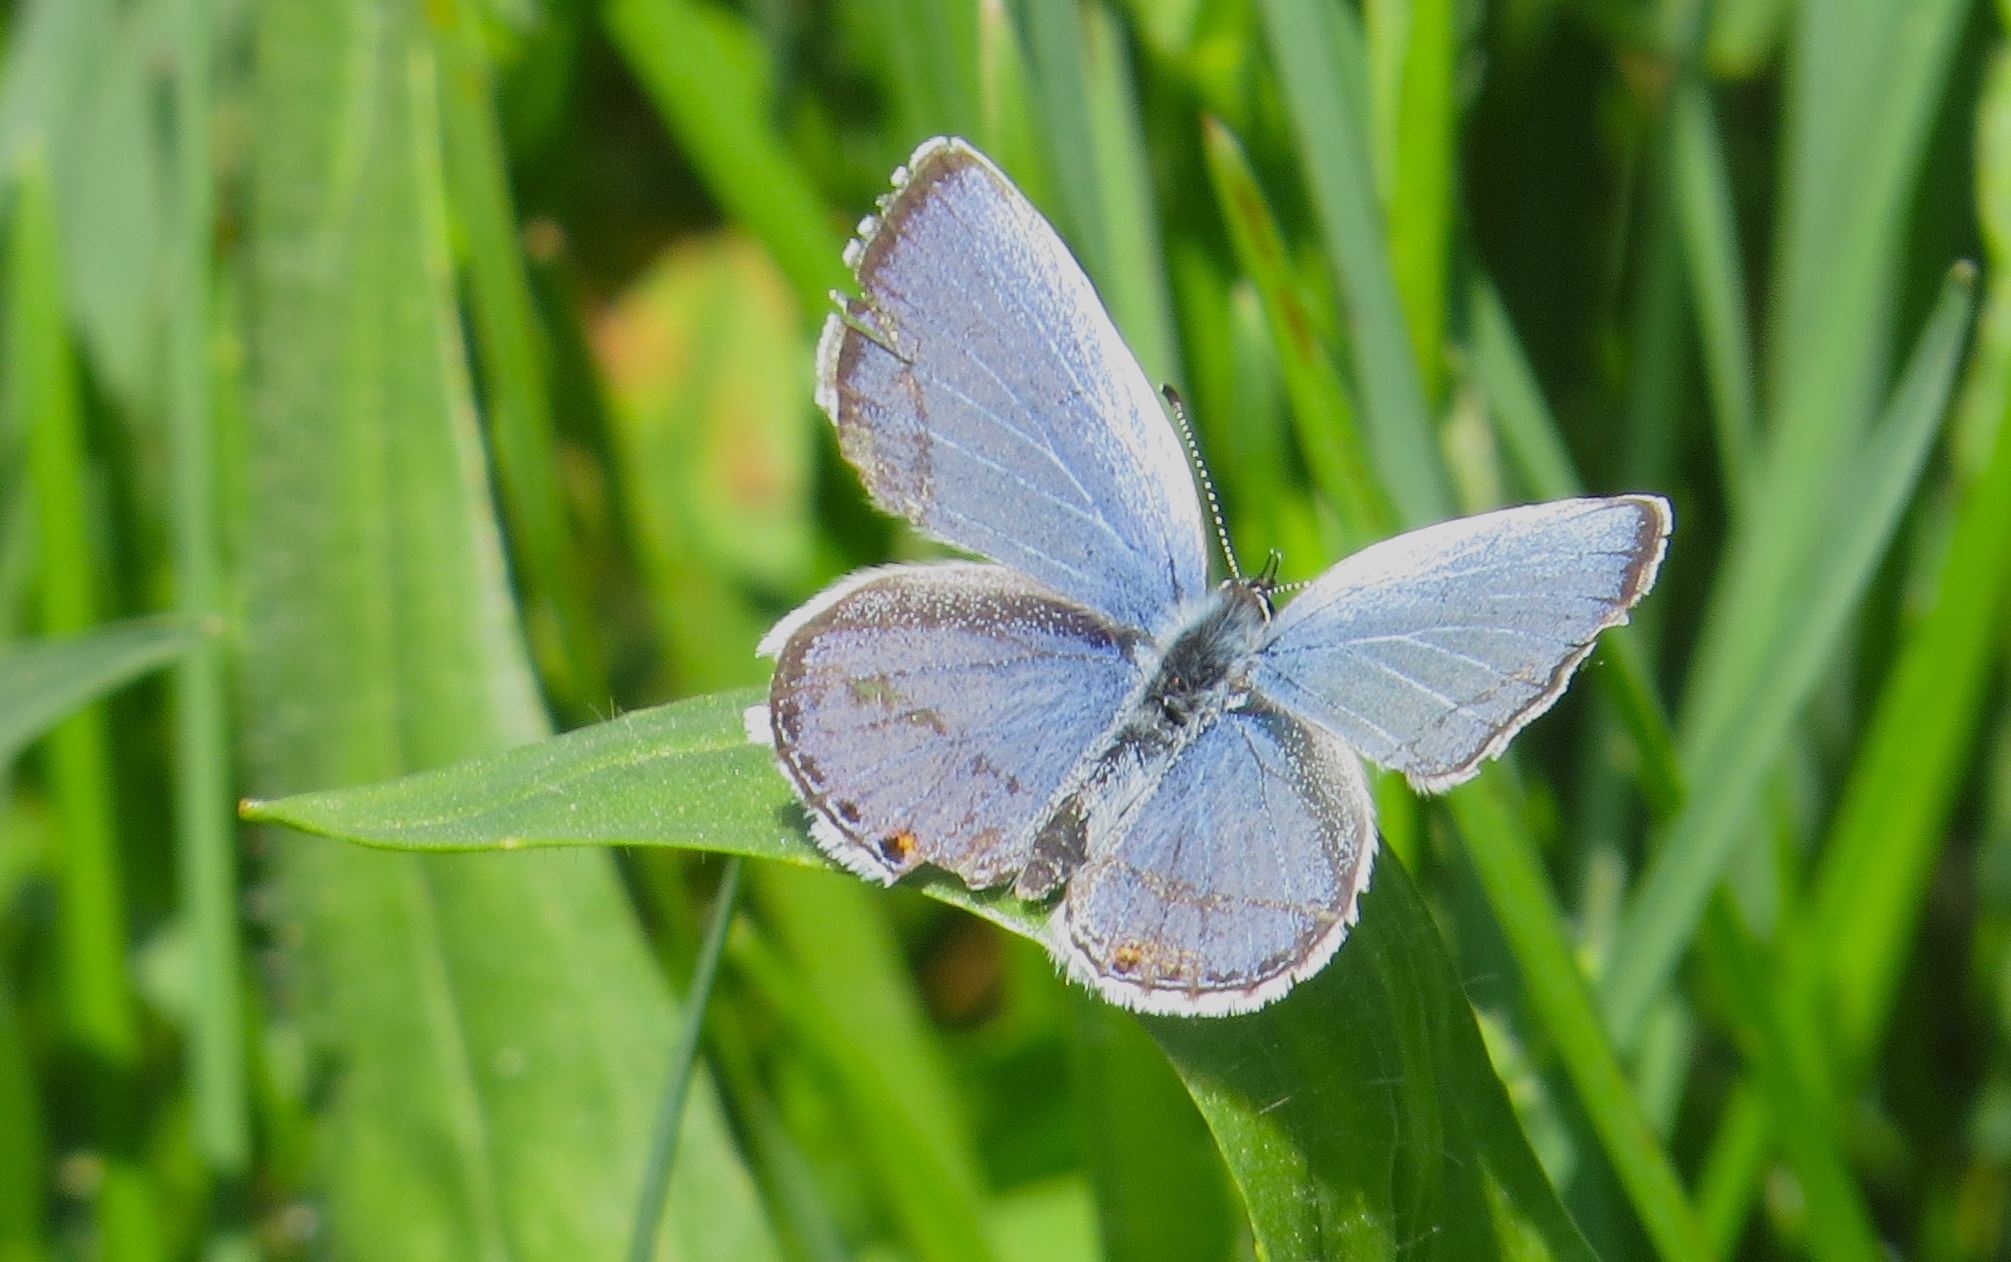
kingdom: Animalia
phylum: Arthropoda
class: Insecta
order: Lepidoptera
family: Lycaenidae
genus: Elkalyce
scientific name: Elkalyce comyntas
